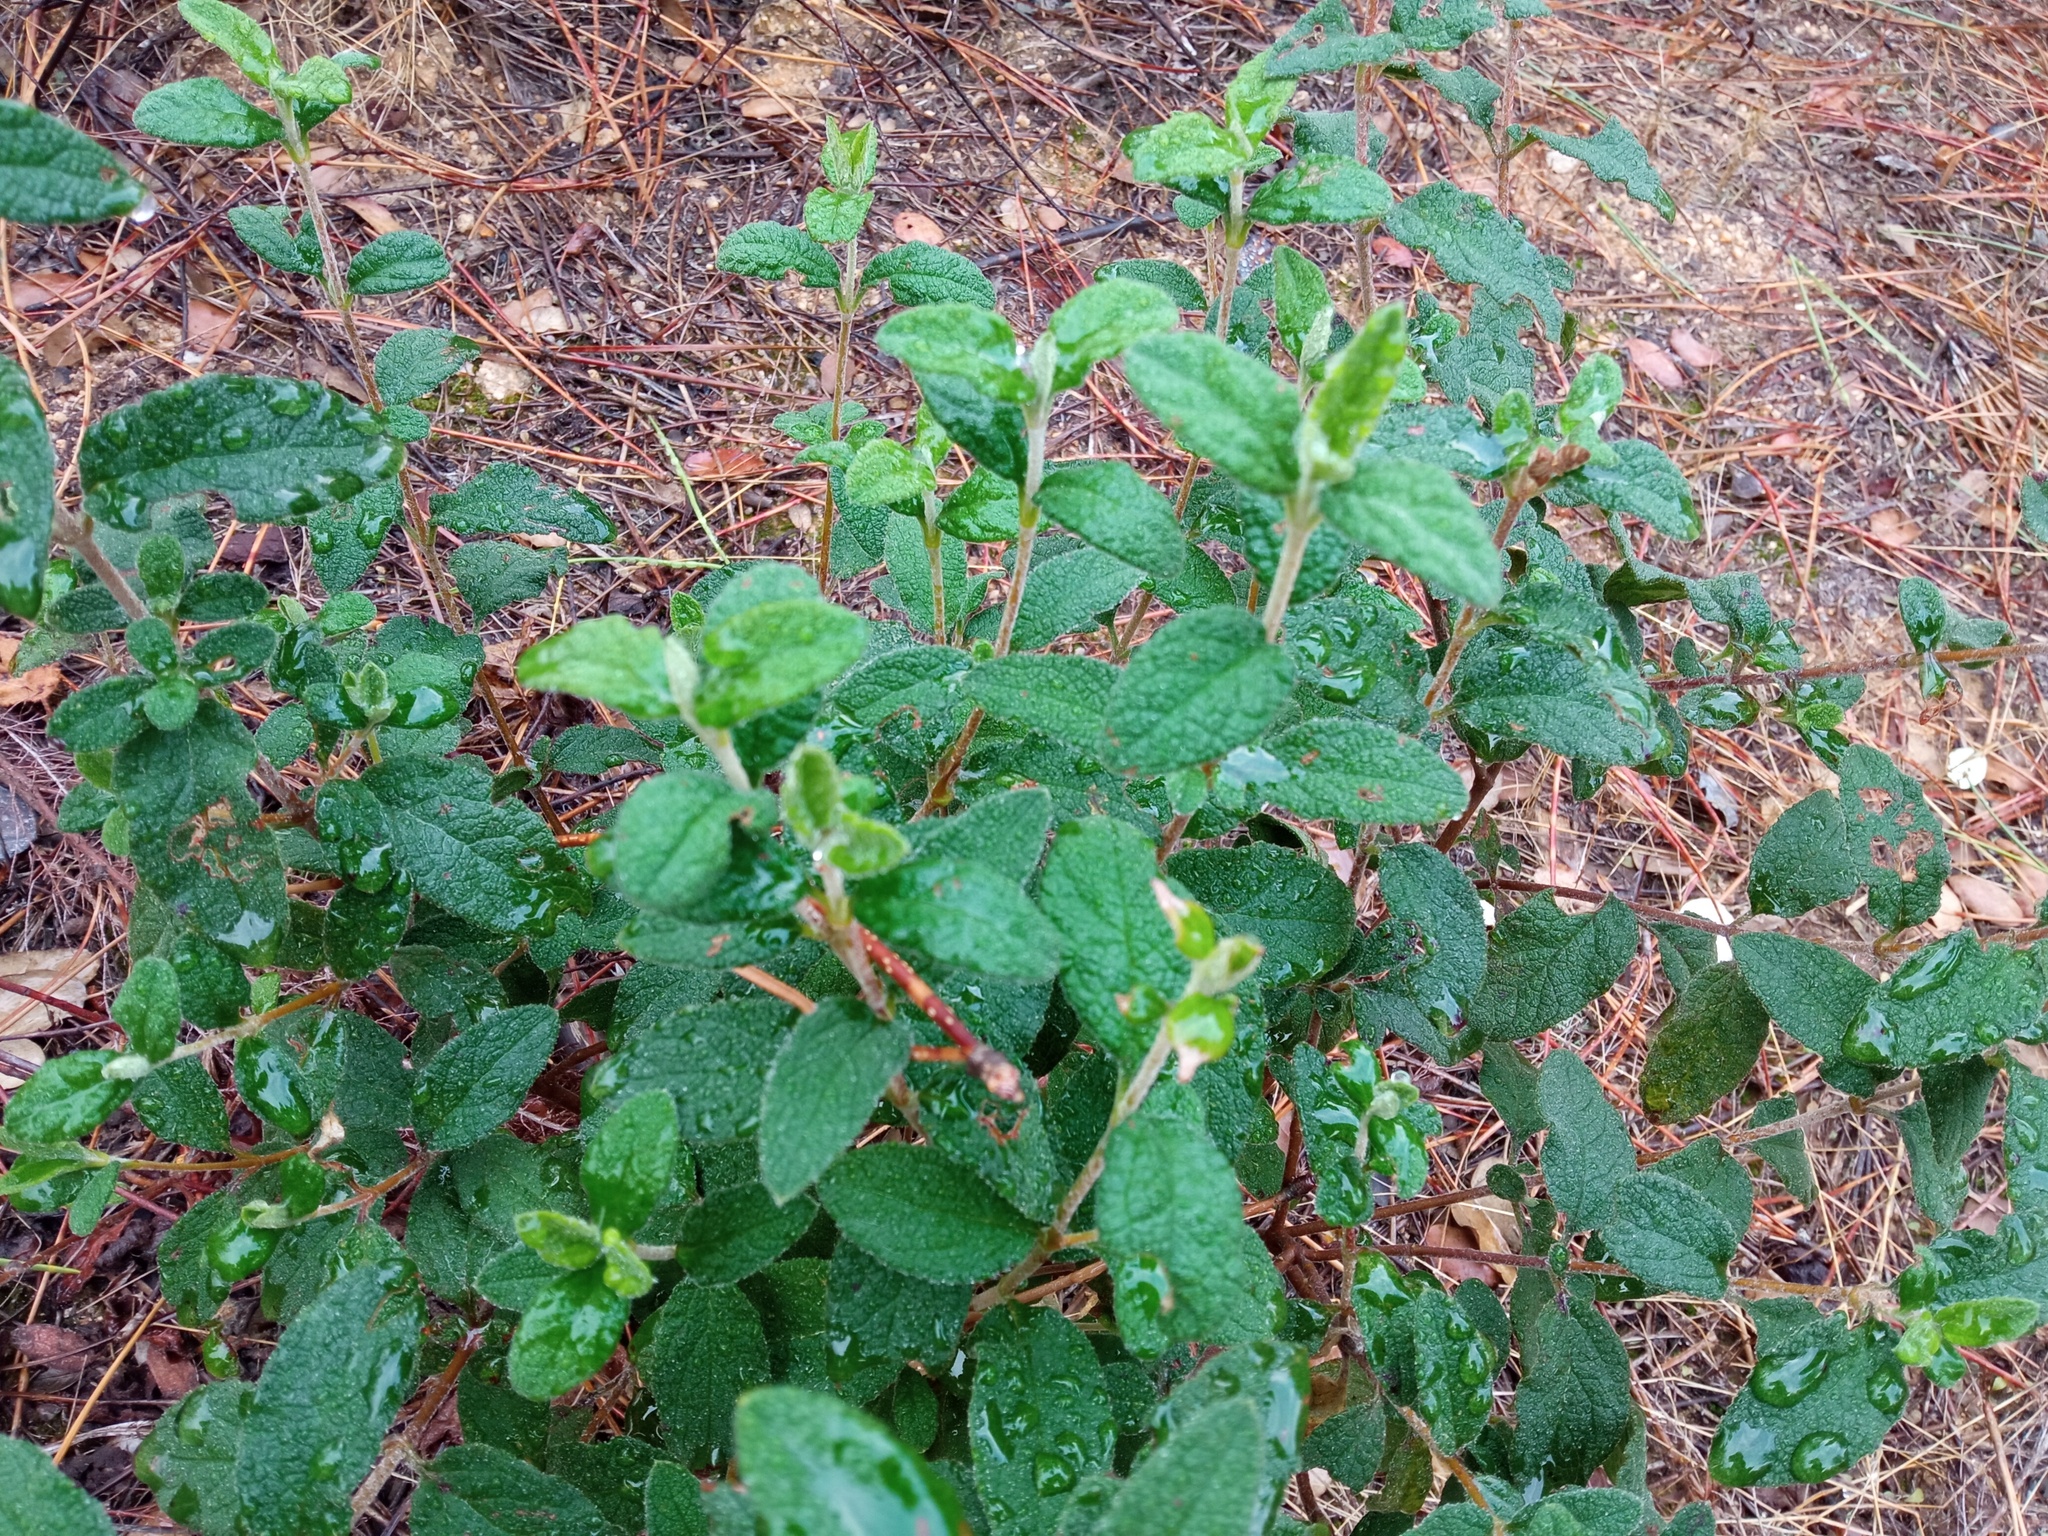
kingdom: Plantae
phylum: Tracheophyta
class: Magnoliopsida
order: Malvales
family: Cistaceae
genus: Cistus
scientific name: Cistus salviifolius
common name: Salvia cistus
